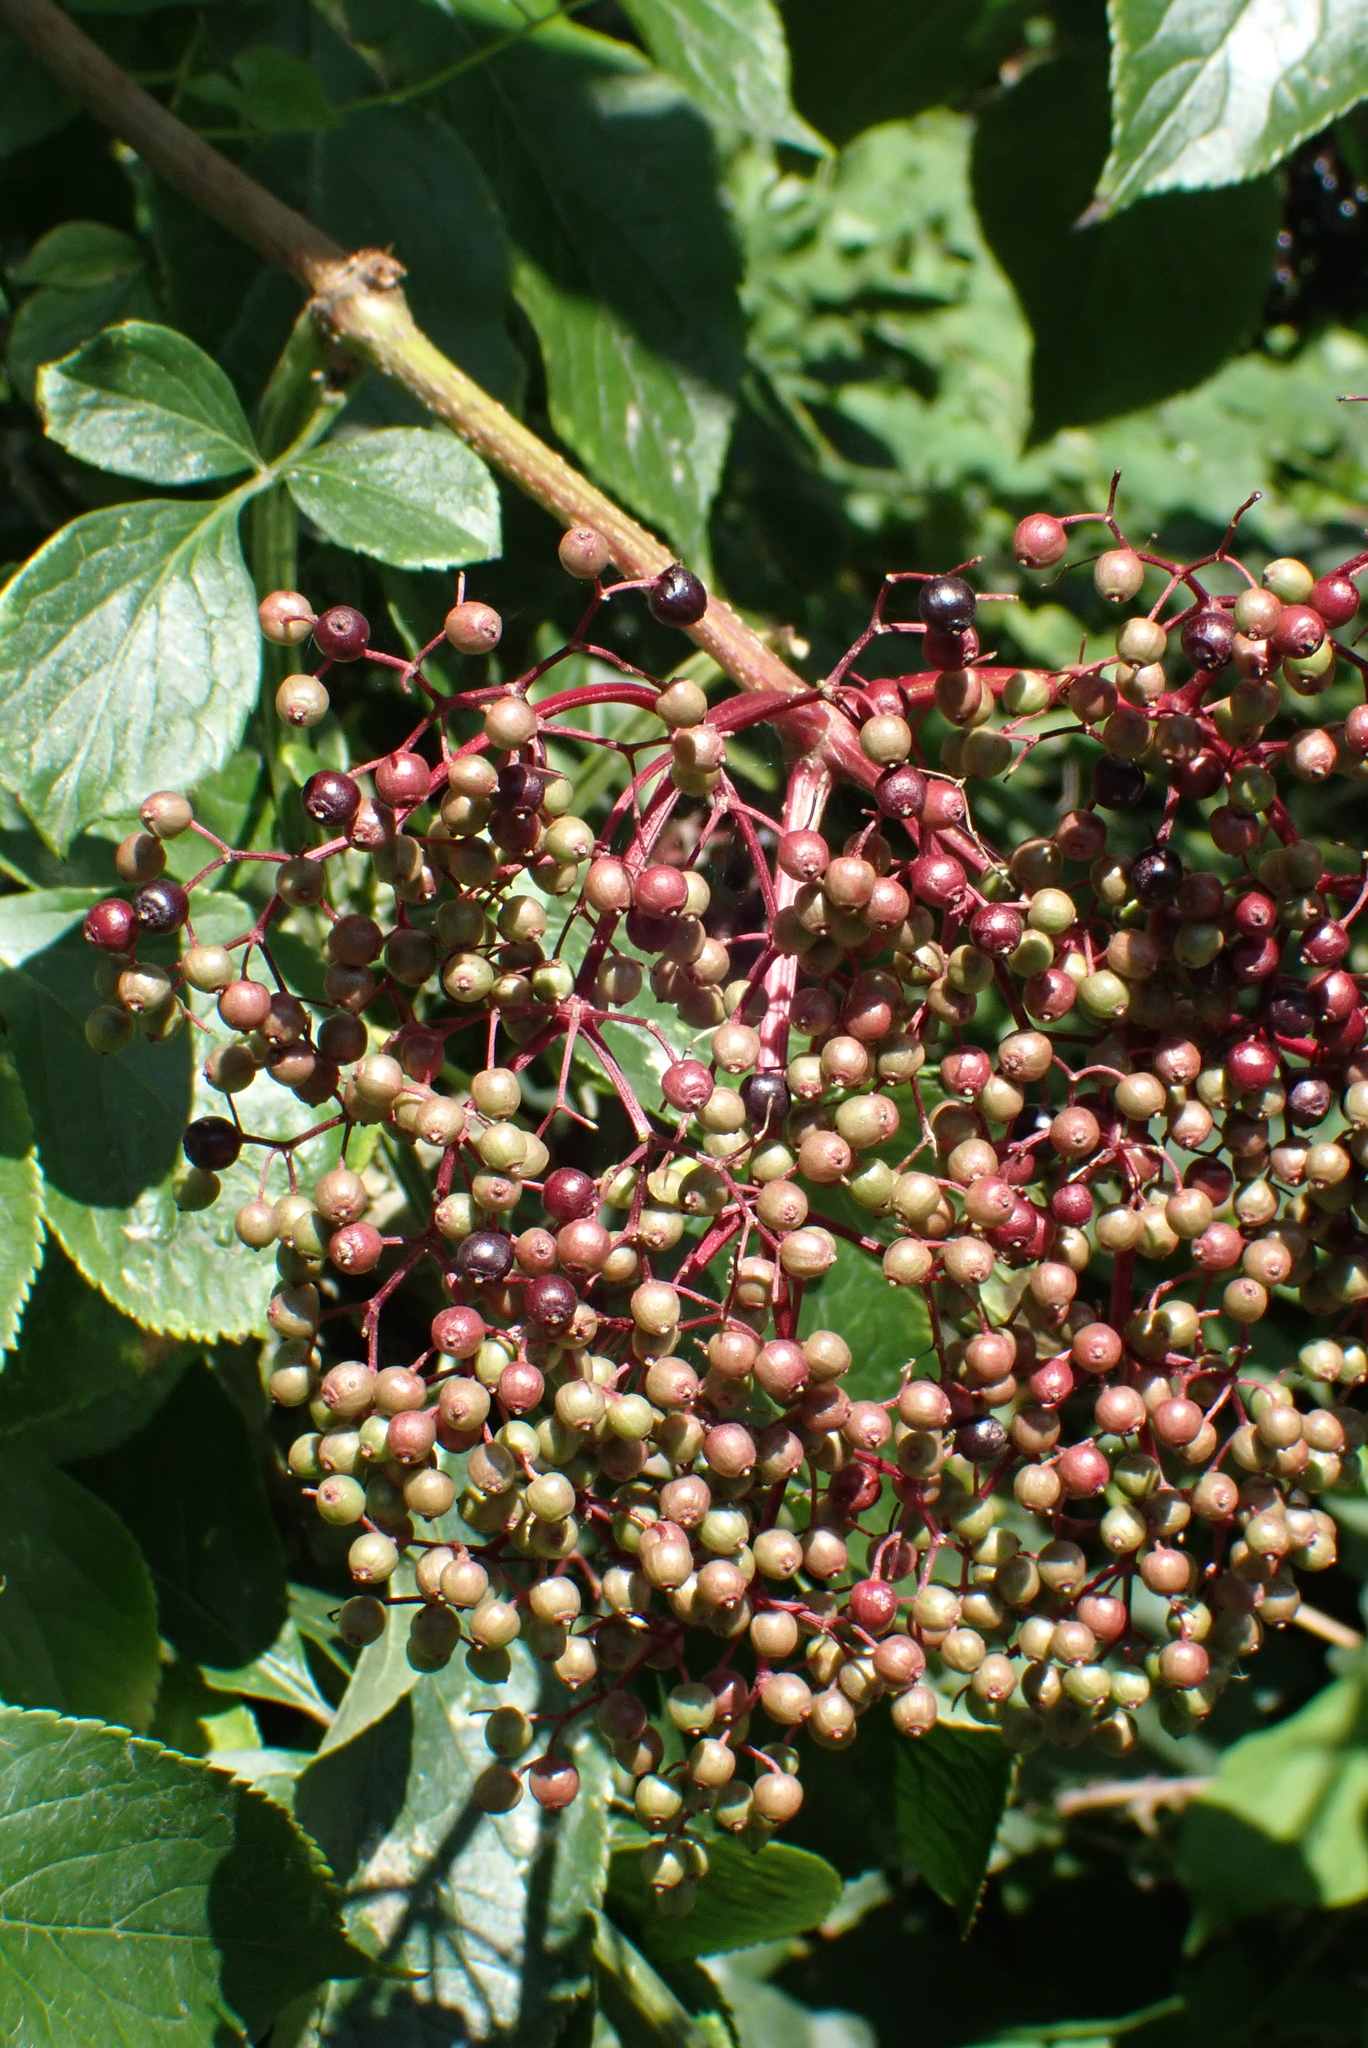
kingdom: Plantae
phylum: Tracheophyta
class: Magnoliopsida
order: Dipsacales
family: Viburnaceae
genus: Sambucus
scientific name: Sambucus nigra
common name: Elder
